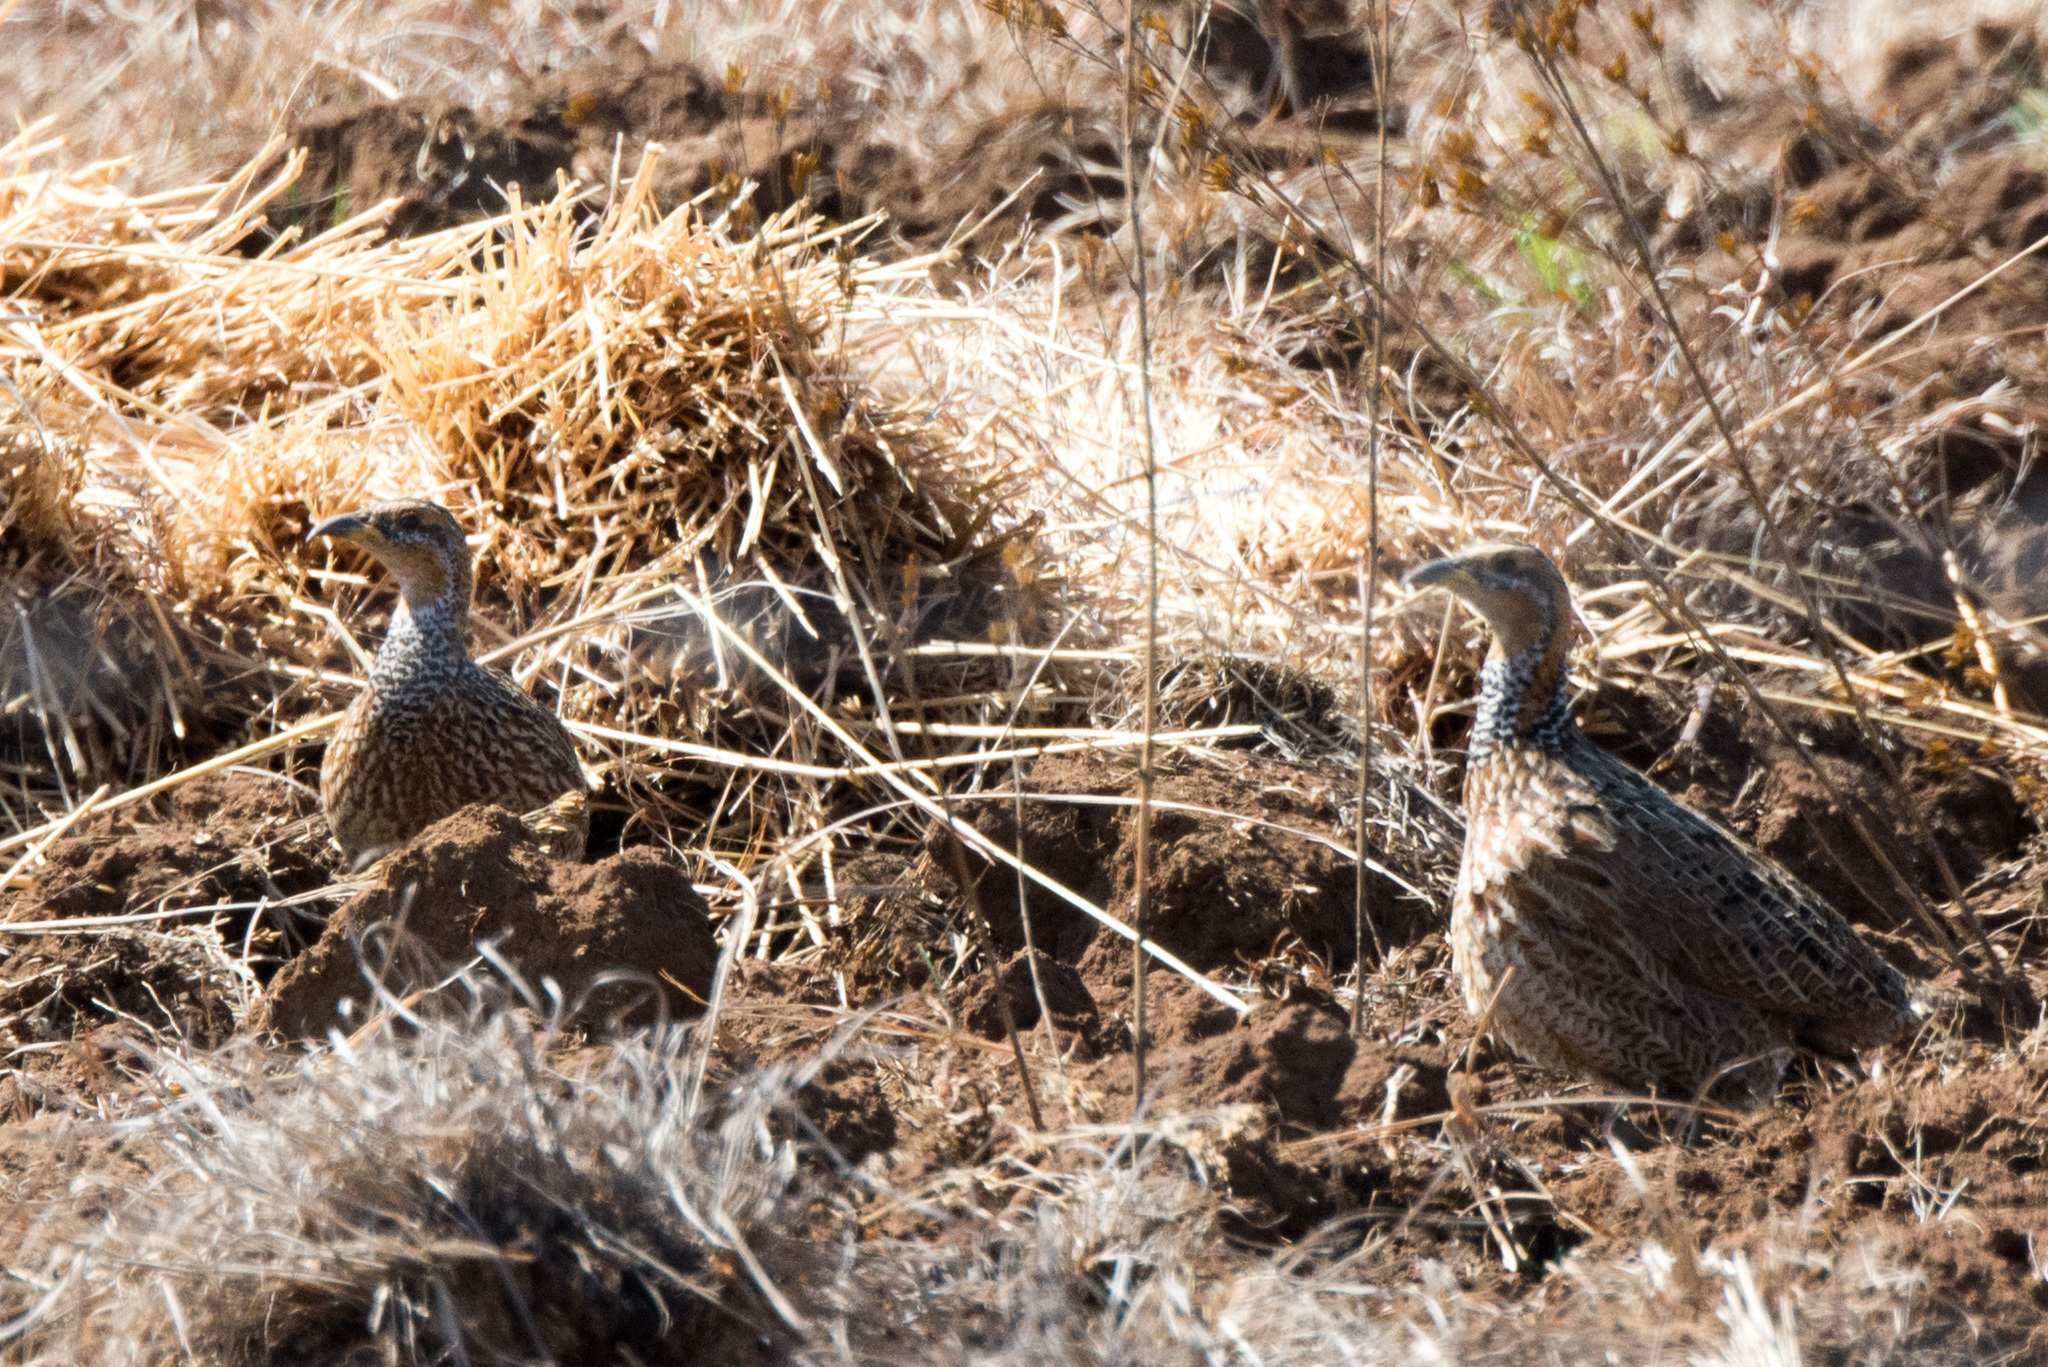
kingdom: Animalia
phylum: Chordata
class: Aves
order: Galliformes
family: Phasianidae
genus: Scleroptila
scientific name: Scleroptila levaillantii
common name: Red-winged francolin
